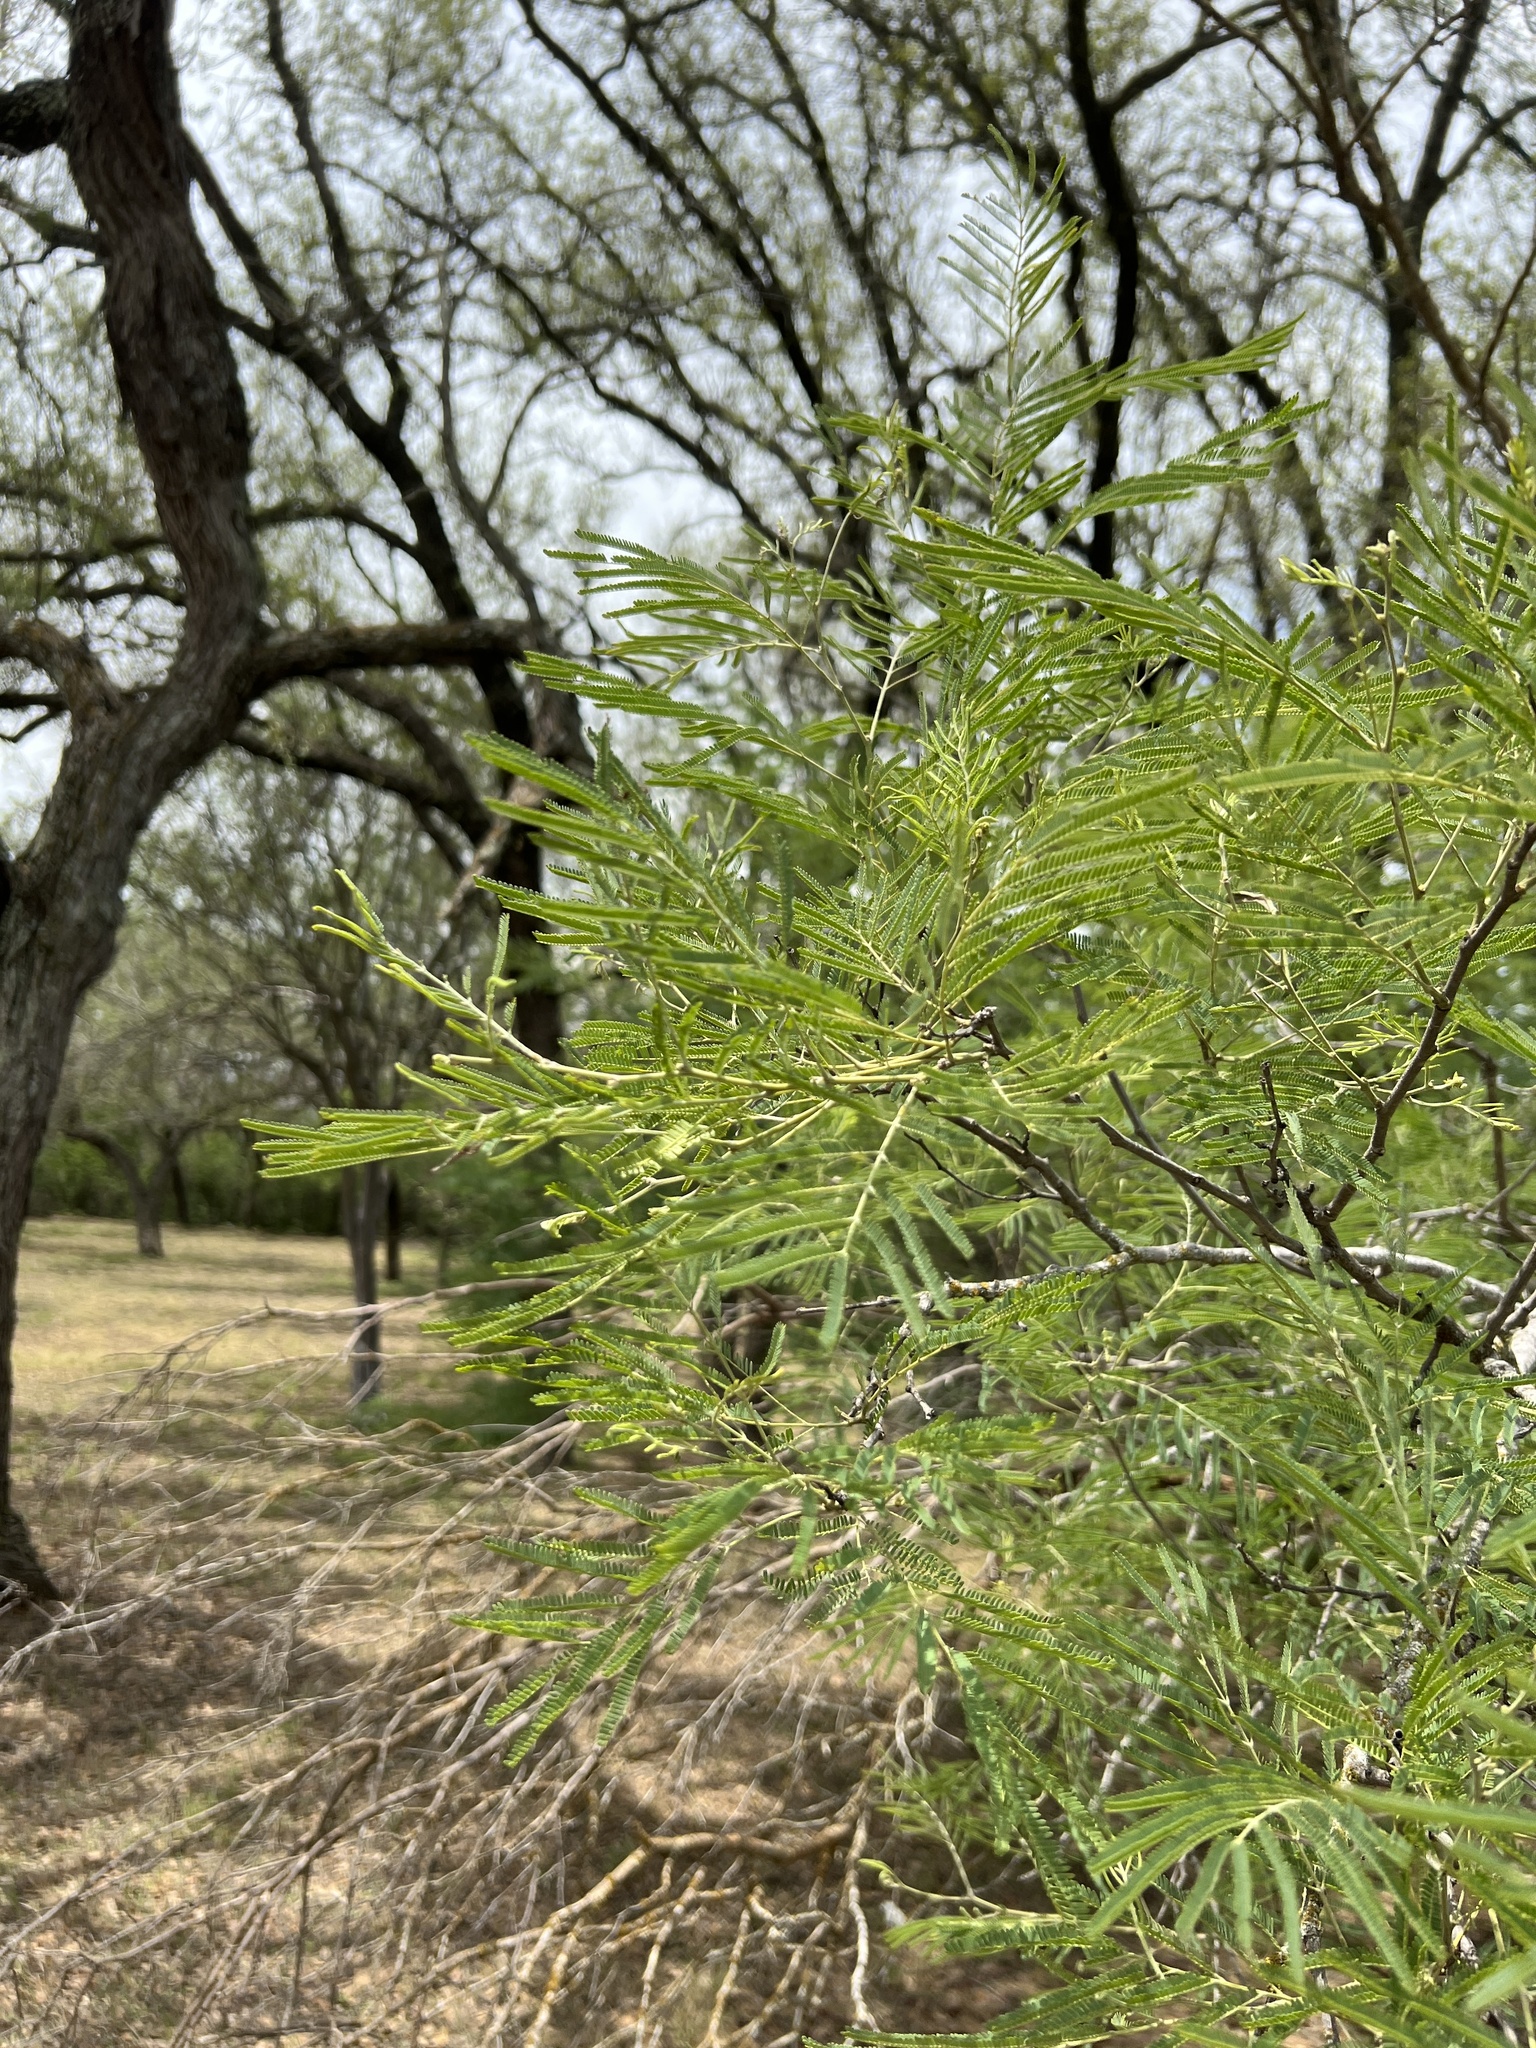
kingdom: Plantae
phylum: Tracheophyta
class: Magnoliopsida
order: Fabales
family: Fabaceae
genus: Senegalia
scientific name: Senegalia berlandieri
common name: Berlandier acacia
